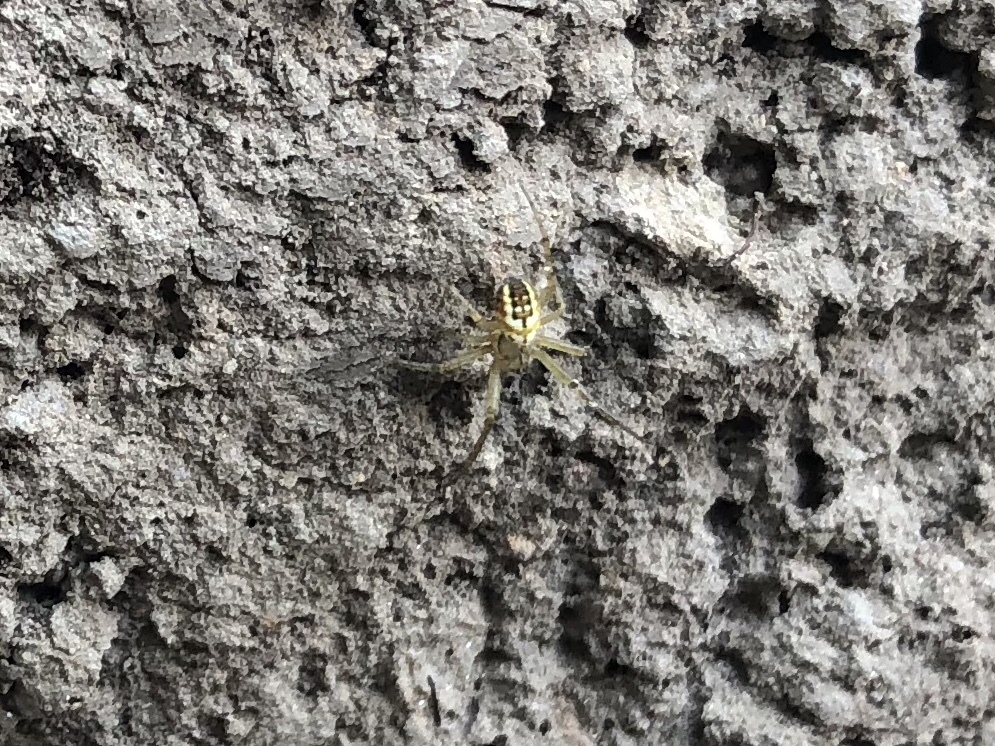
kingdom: Animalia
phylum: Arthropoda
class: Arachnida
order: Araneae
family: Araneidae
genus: Mangora
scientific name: Mangora acalypha
